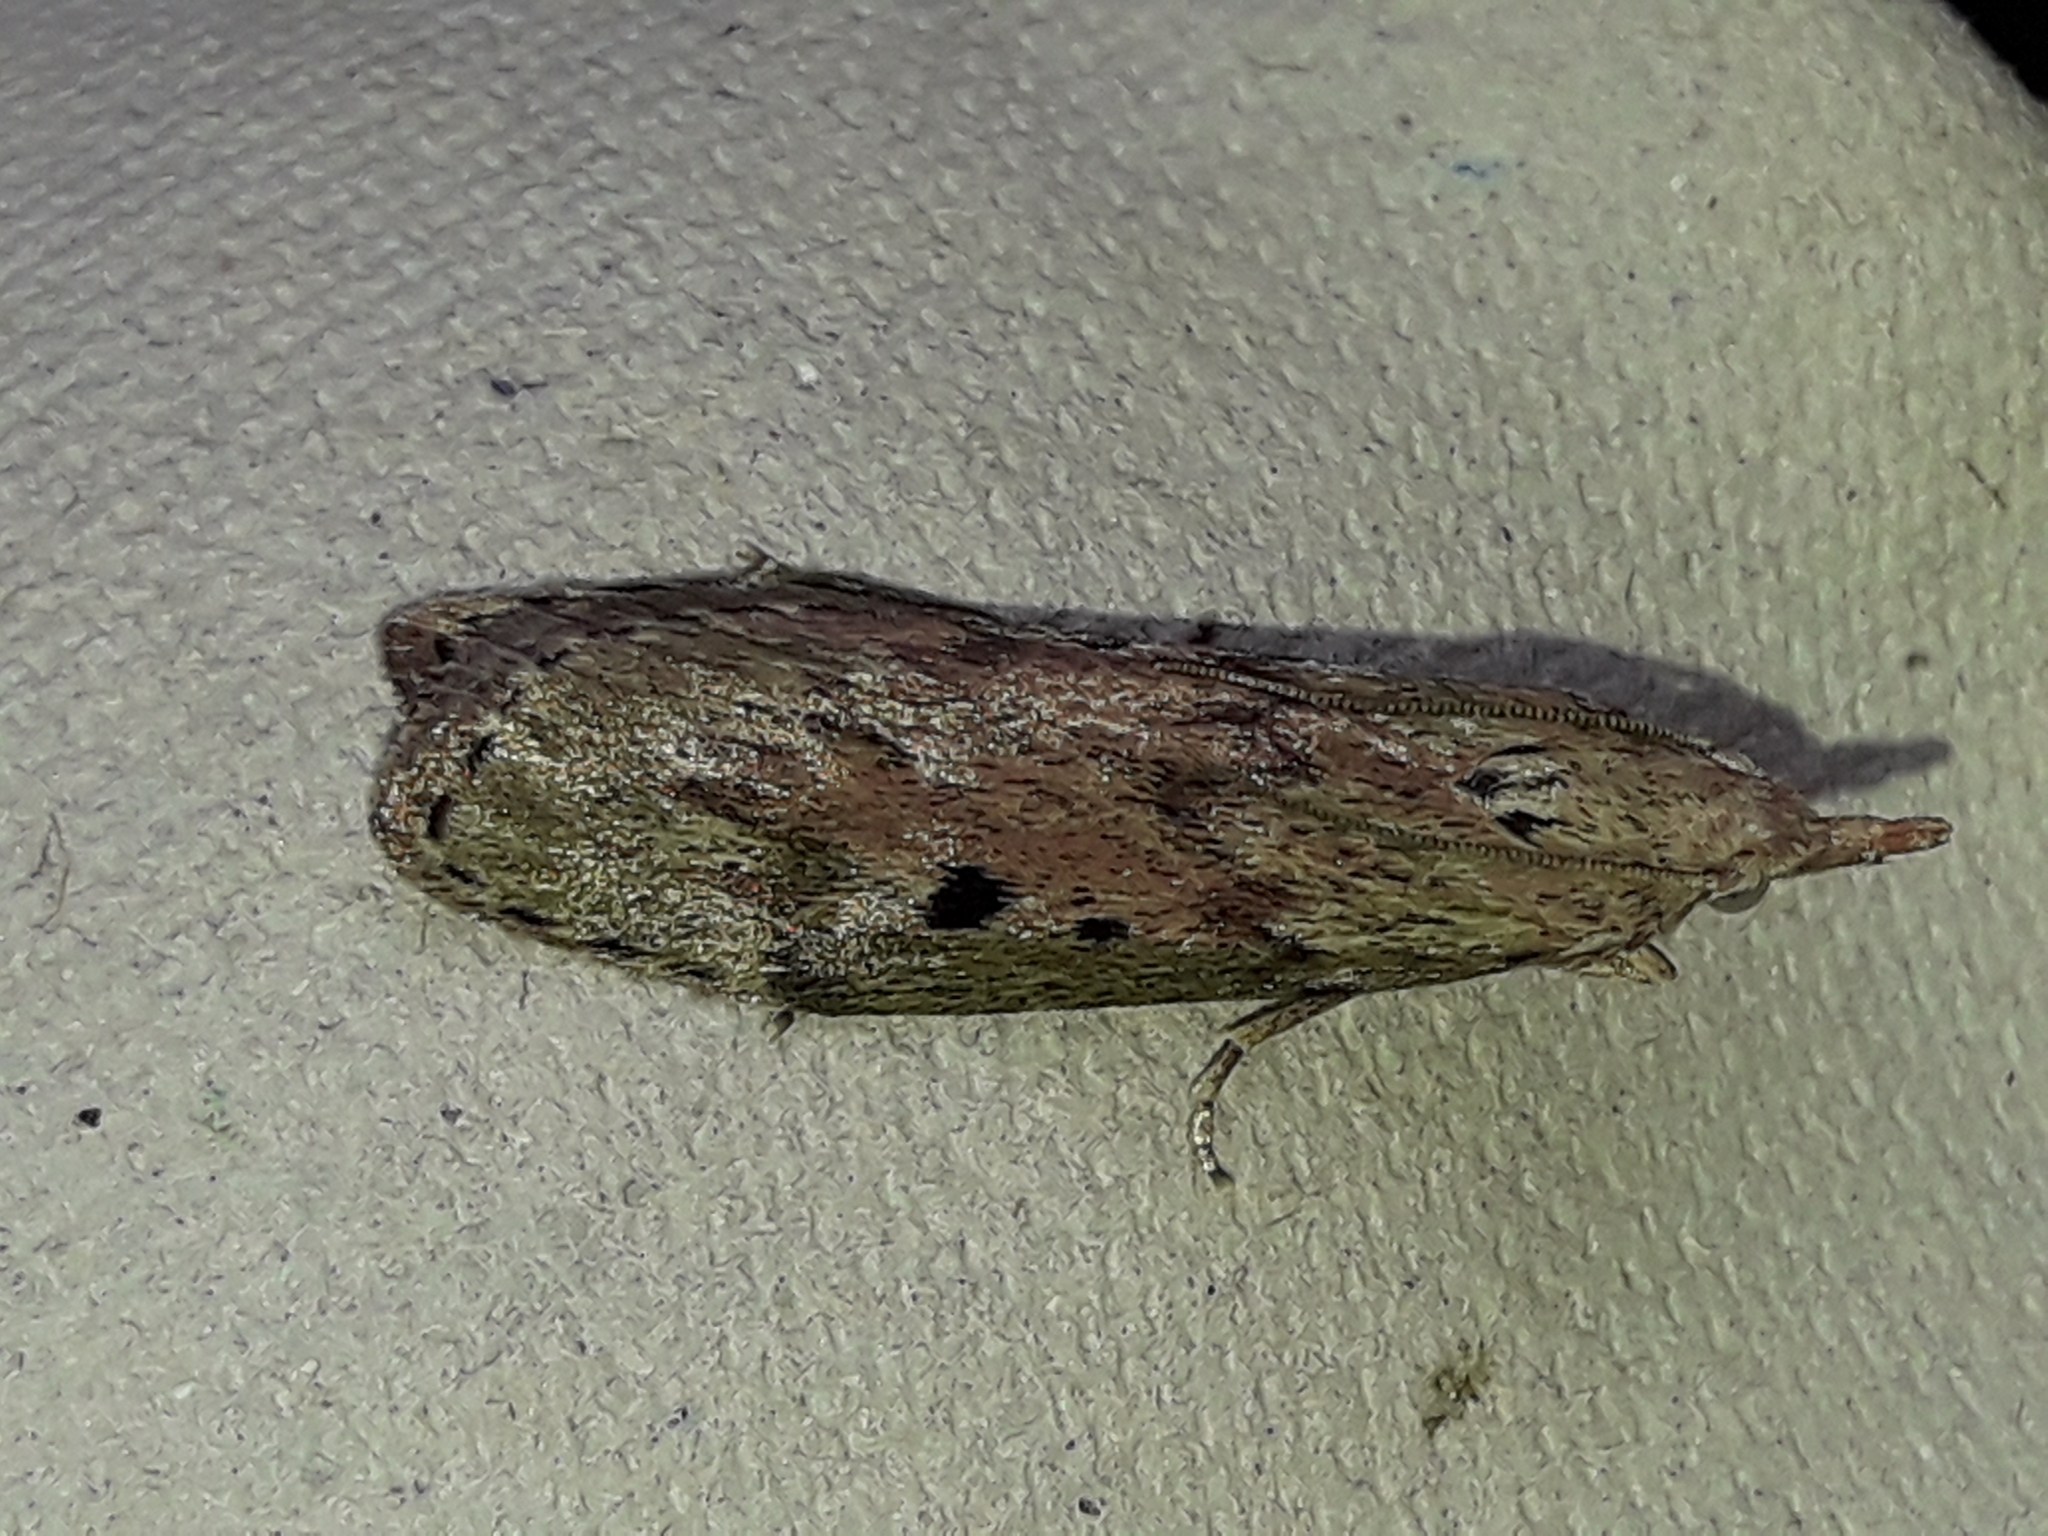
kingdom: Animalia
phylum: Arthropoda
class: Insecta
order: Lepidoptera
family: Pyralidae
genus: Aphomia
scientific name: Aphomia sociella
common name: Bee moth
